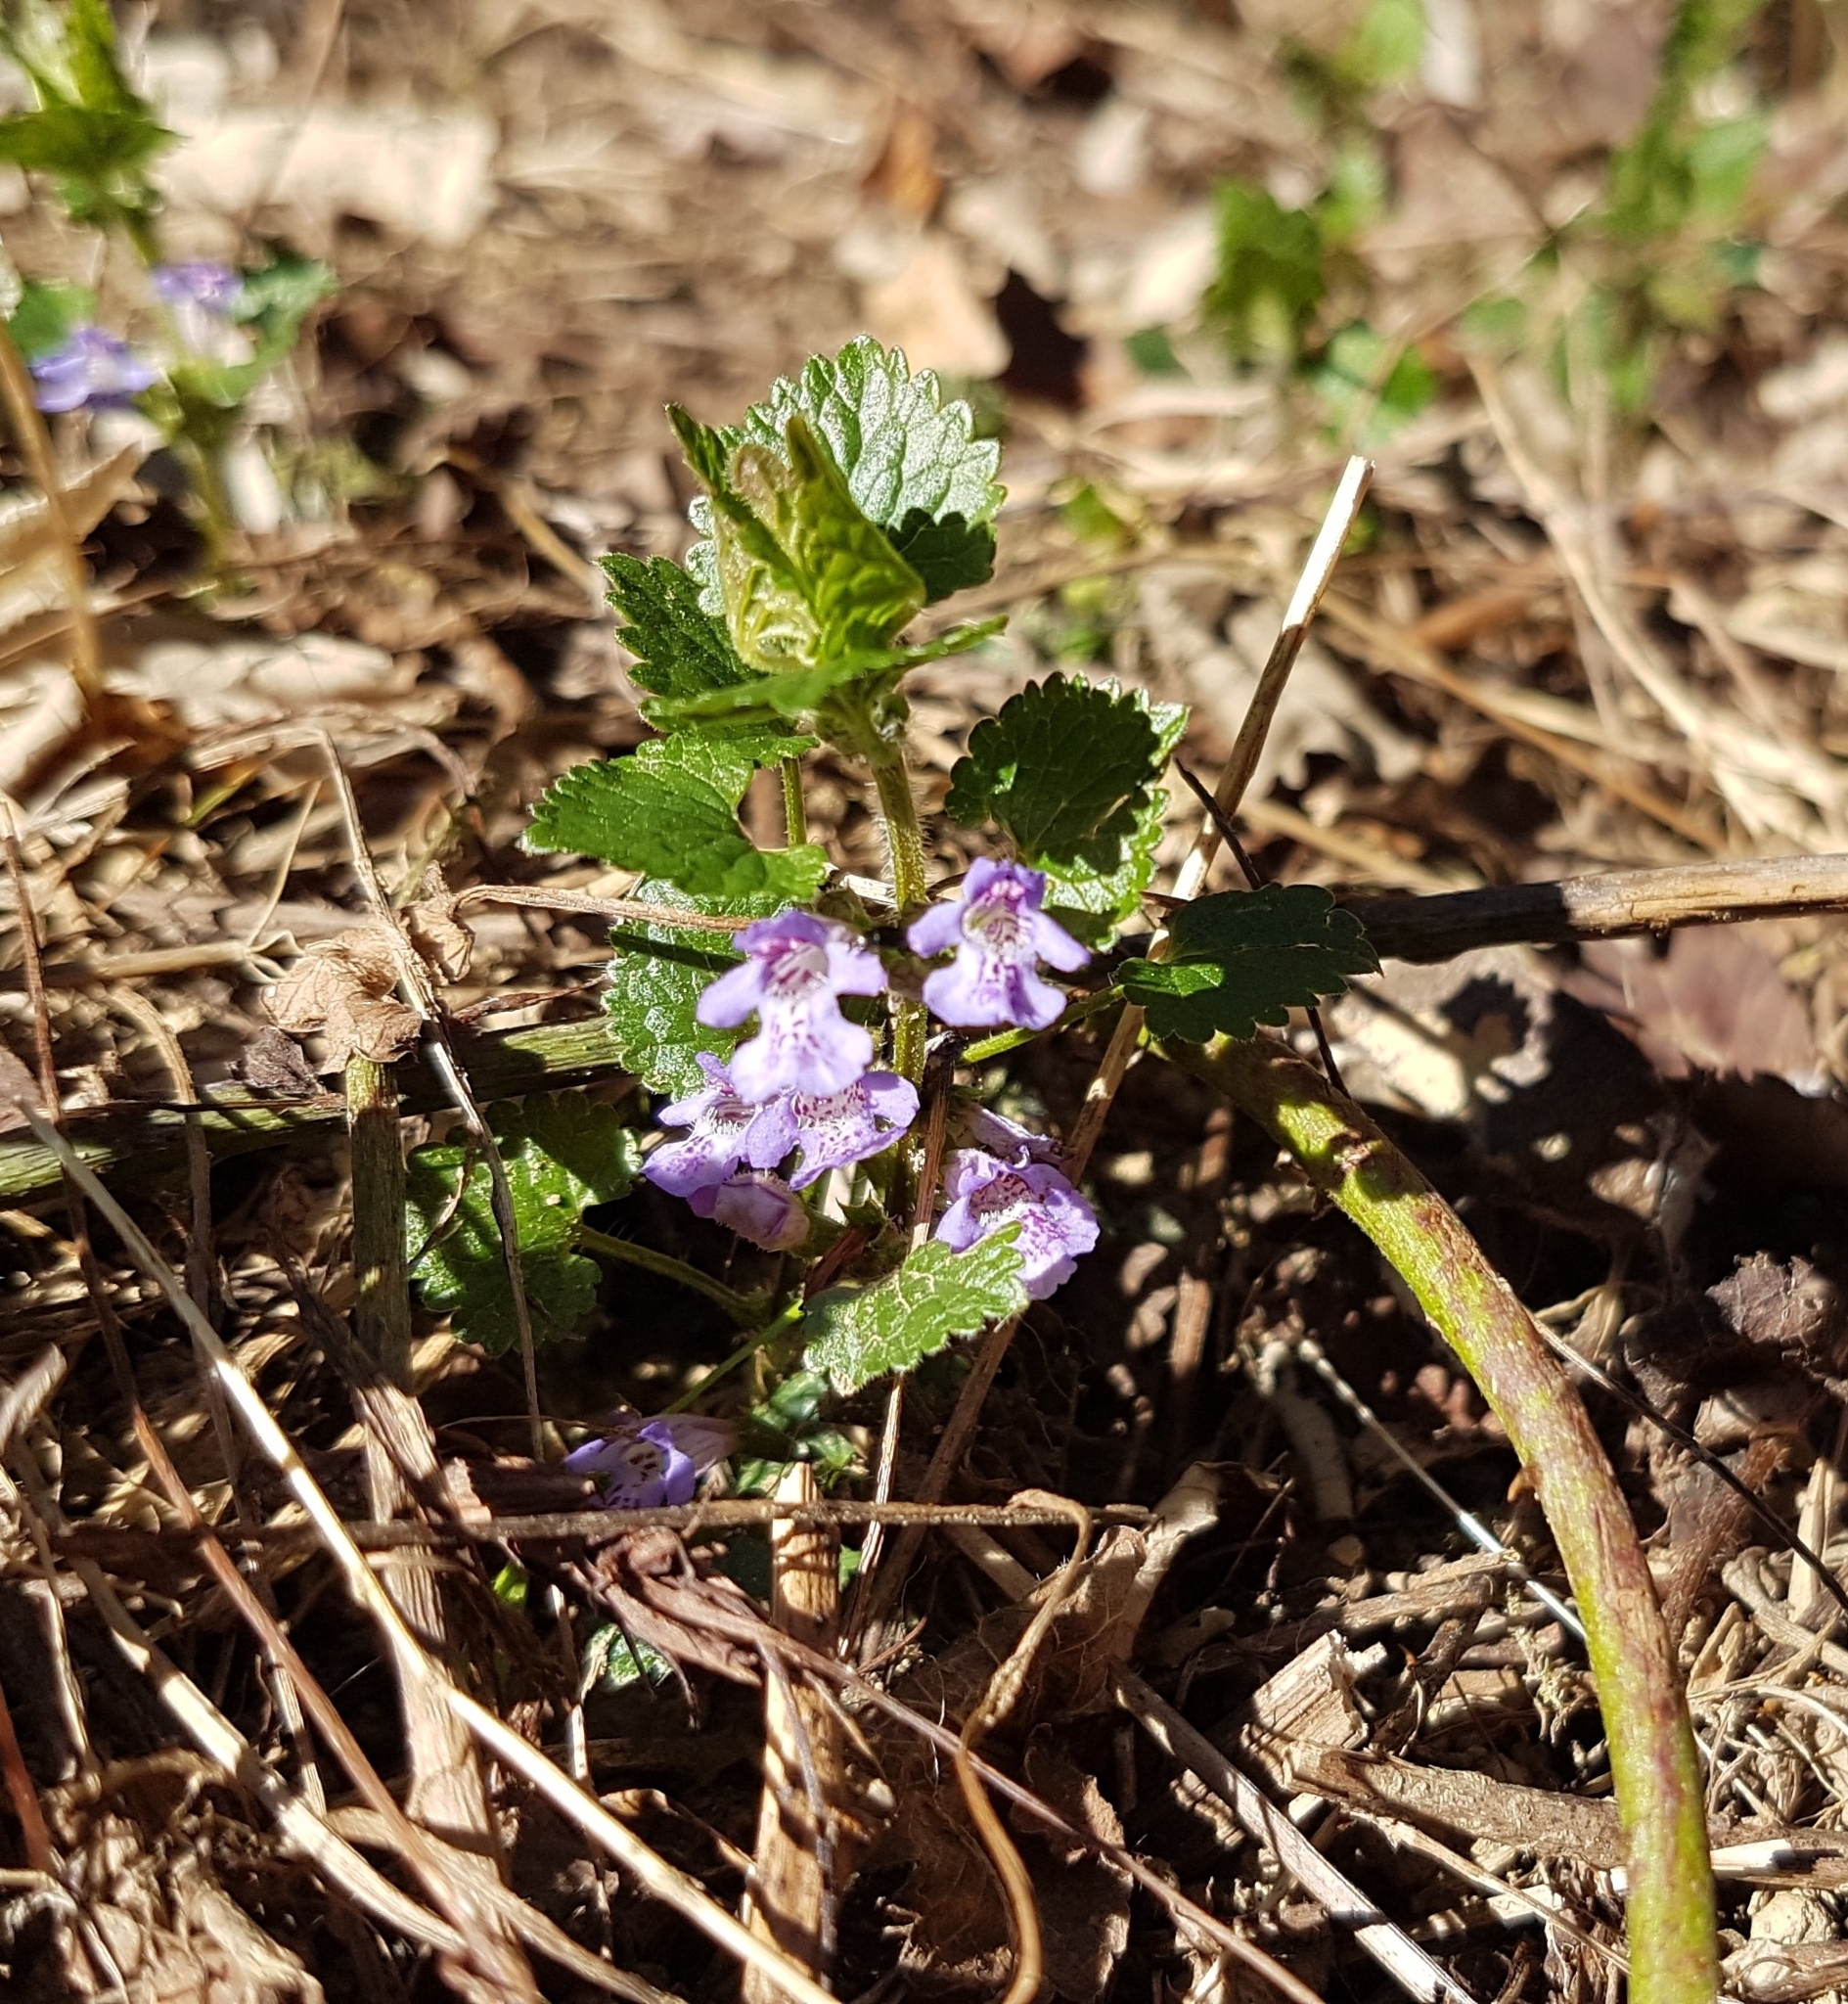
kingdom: Plantae
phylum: Tracheophyta
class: Magnoliopsida
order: Lamiales
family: Lamiaceae
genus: Glechoma
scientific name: Glechoma hederacea
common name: Ground ivy
